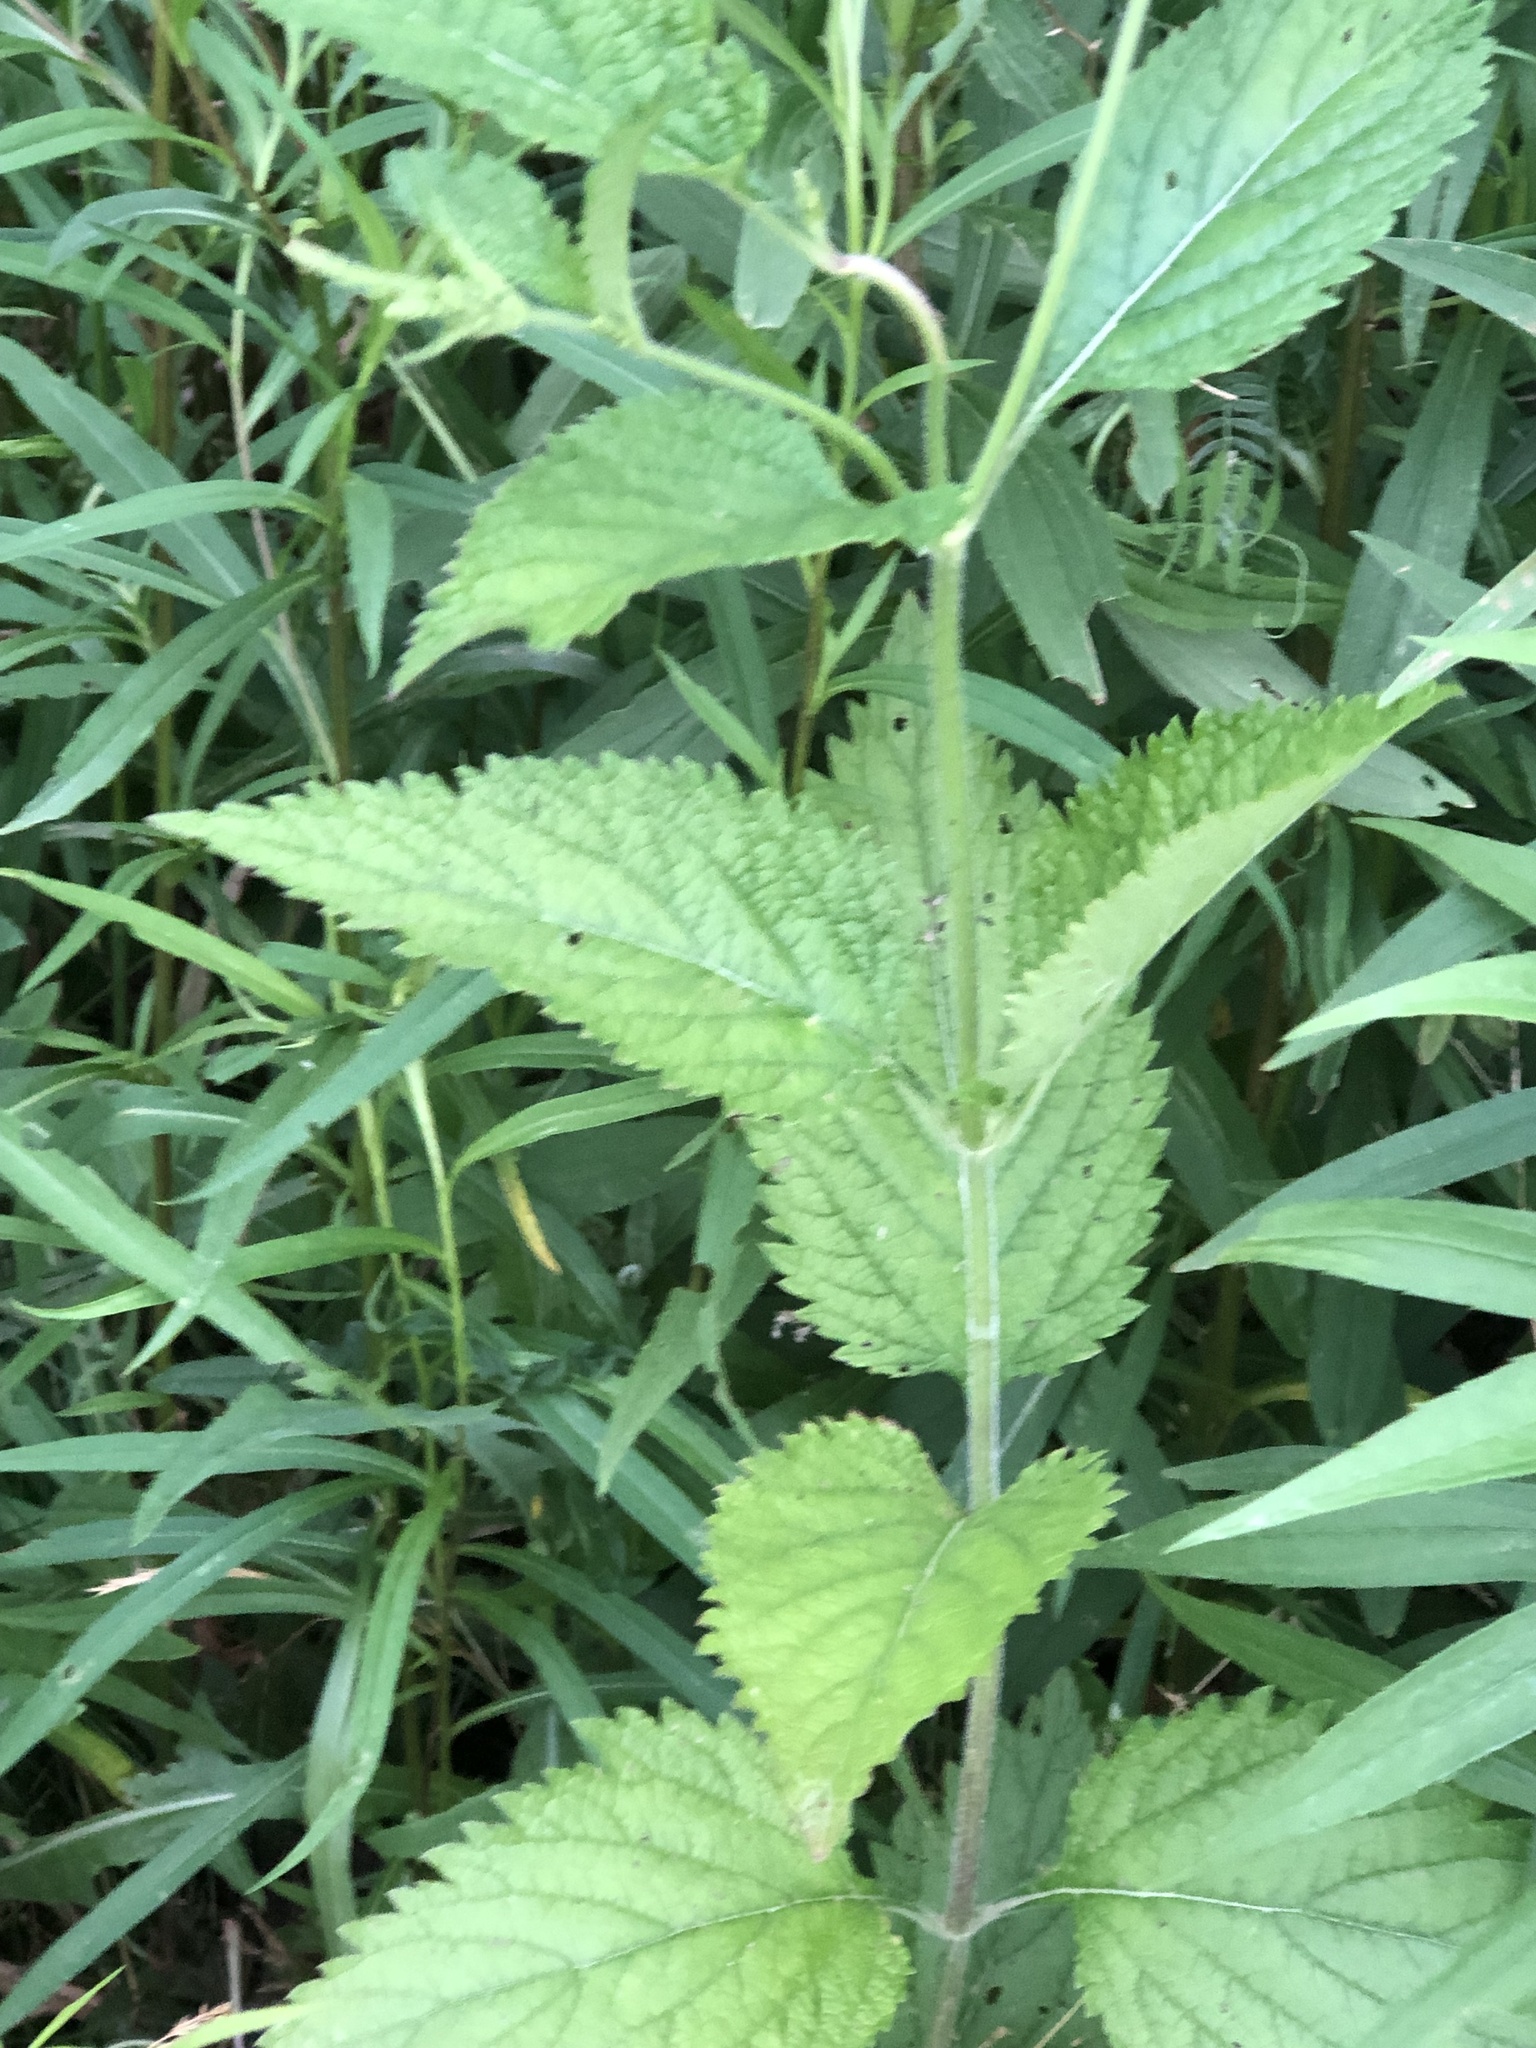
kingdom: Plantae
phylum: Tracheophyta
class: Magnoliopsida
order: Lamiales
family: Verbenaceae
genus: Verbena
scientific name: Verbena urticifolia
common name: Nettle-leaved vervain
